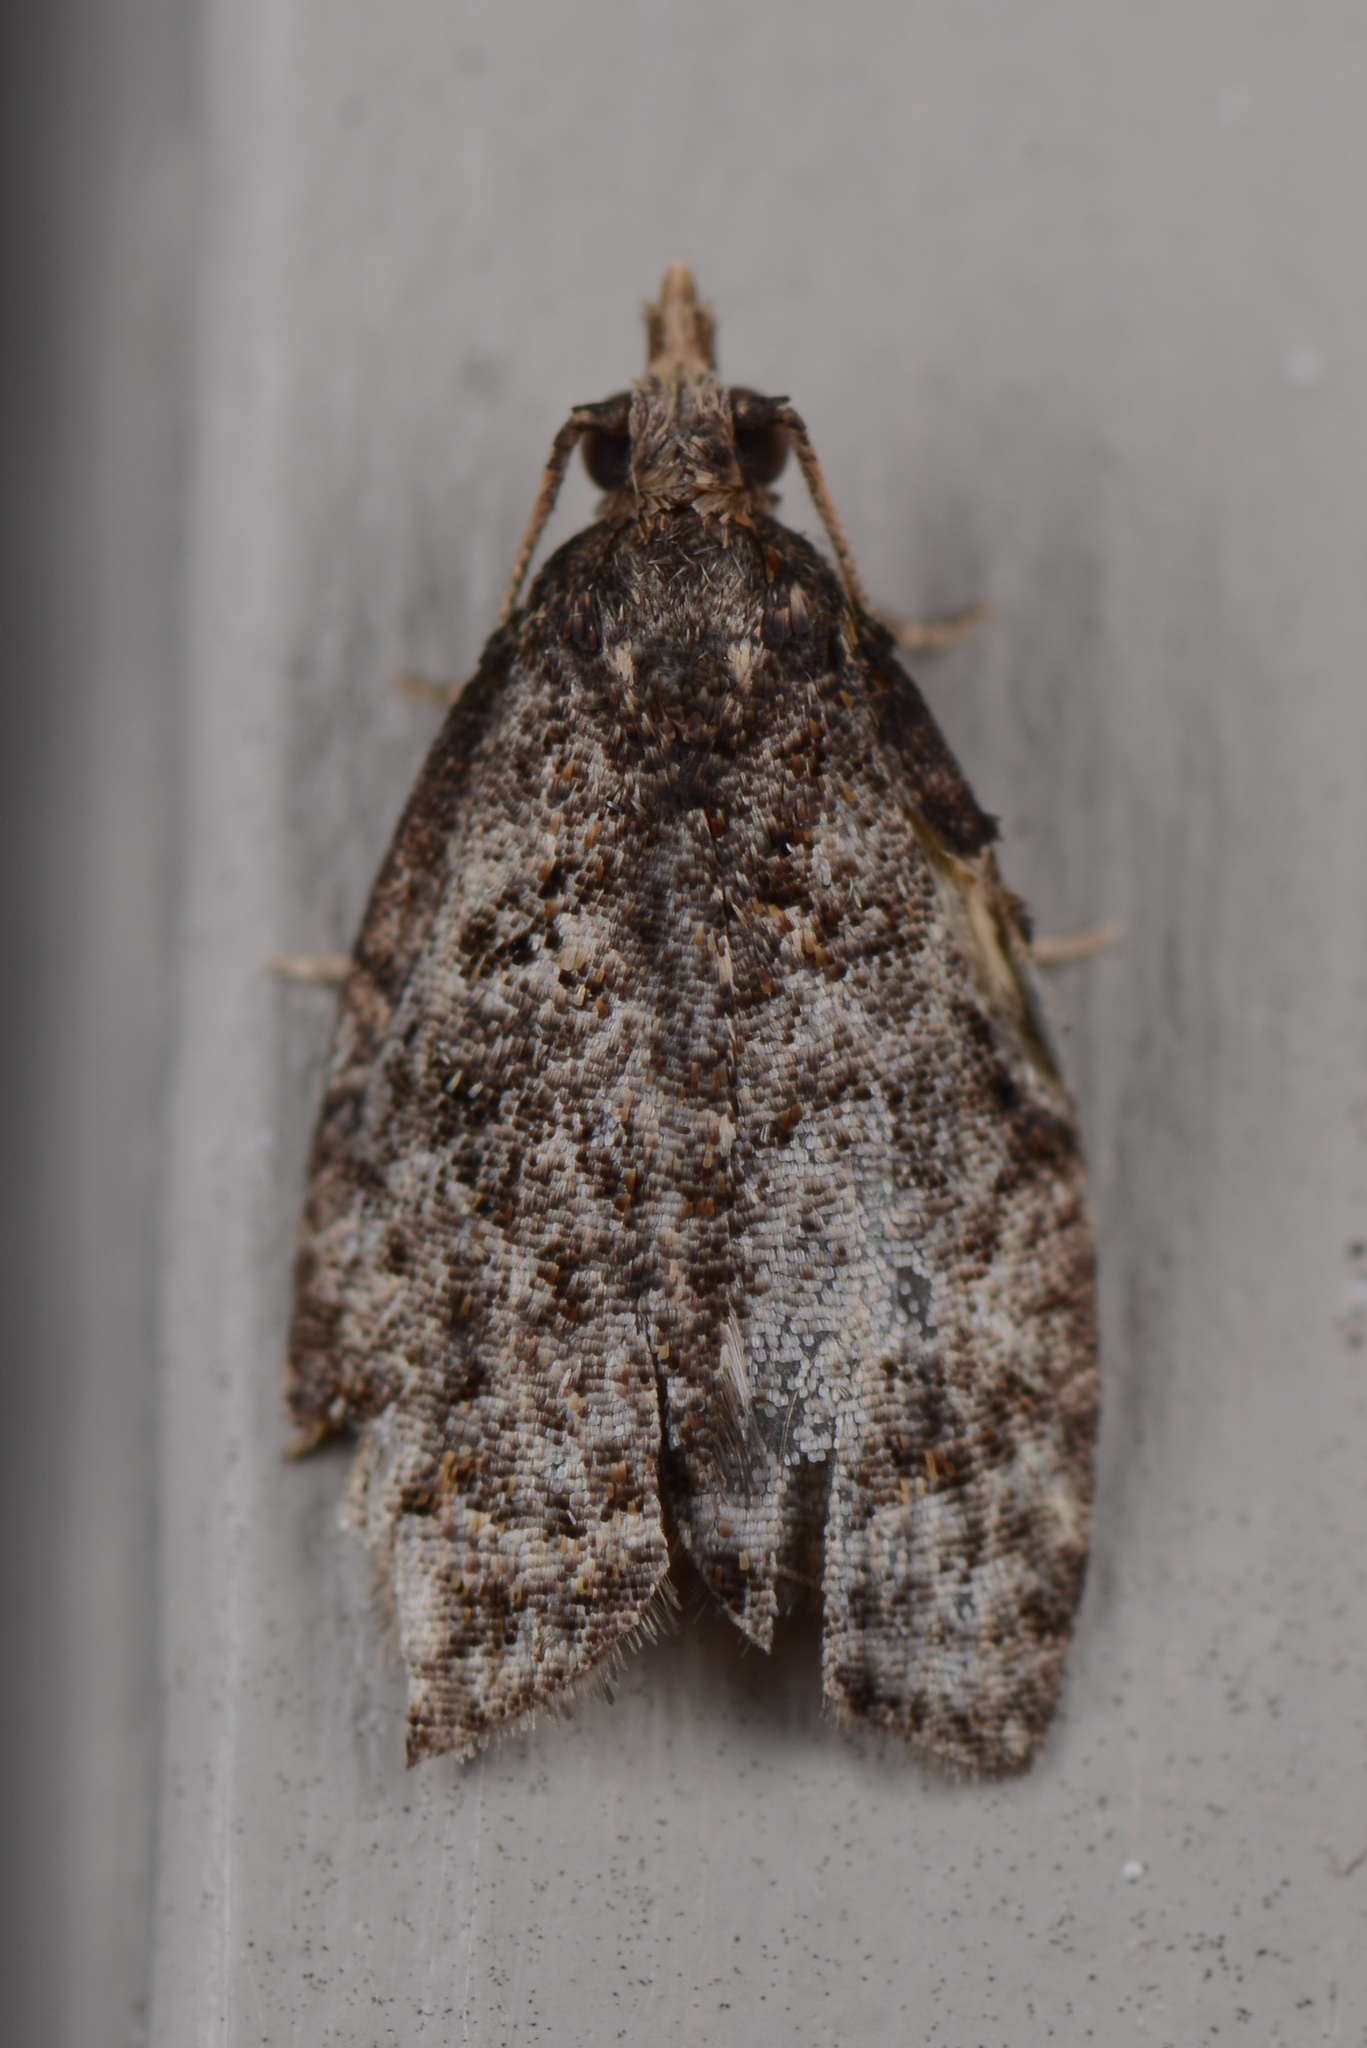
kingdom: Animalia
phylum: Arthropoda
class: Insecta
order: Lepidoptera
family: Tortricidae
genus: Capua
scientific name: Capua intractana
